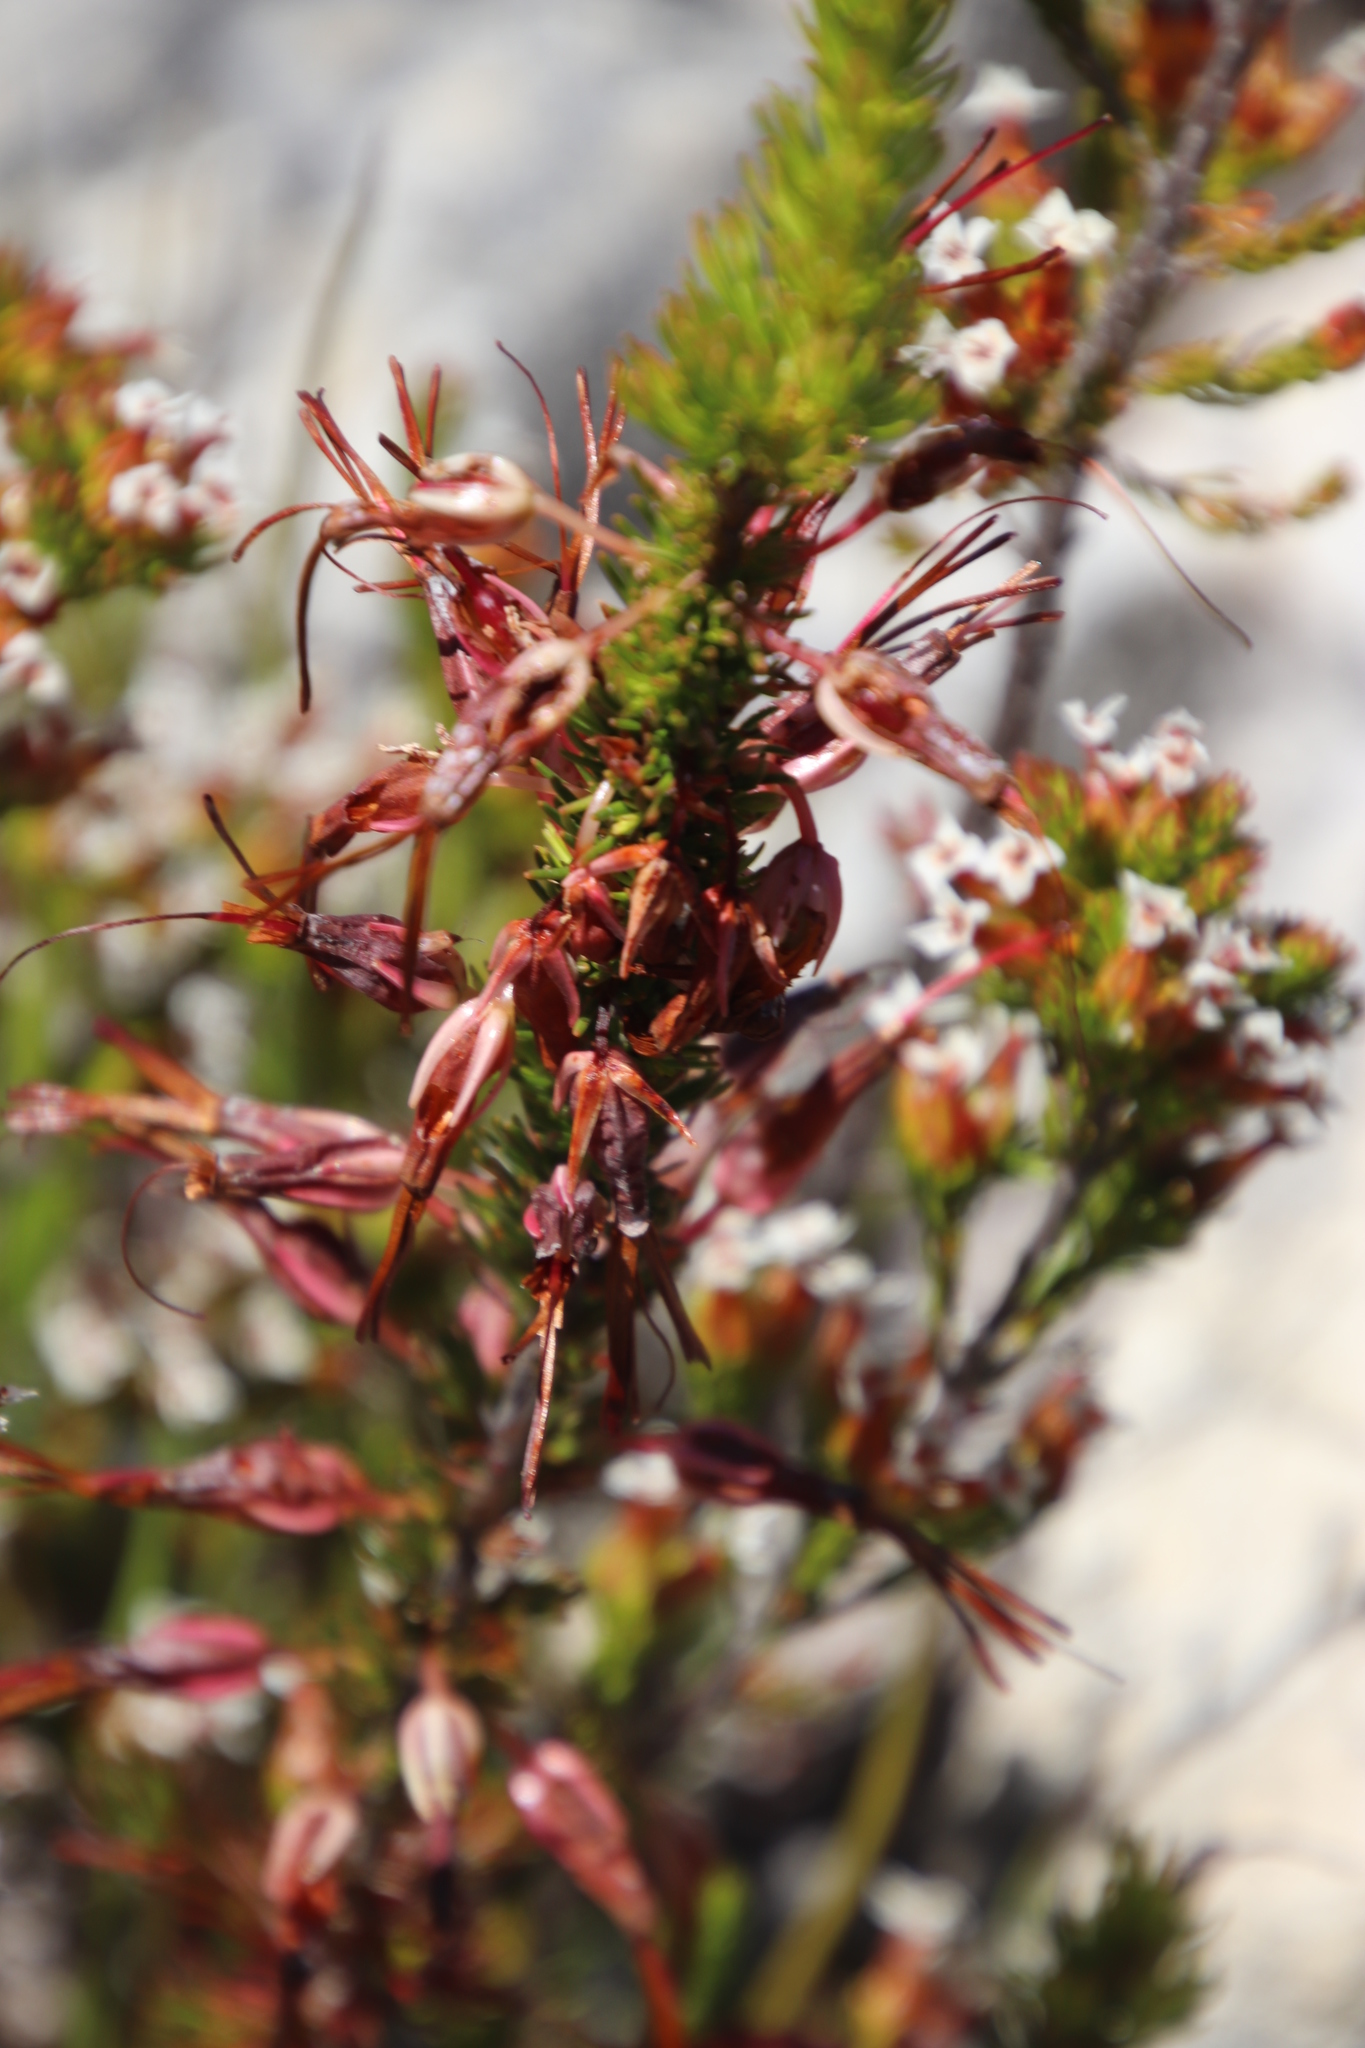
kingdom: Plantae
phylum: Tracheophyta
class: Magnoliopsida
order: Ericales
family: Ericaceae
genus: Erica
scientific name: Erica plukenetii
